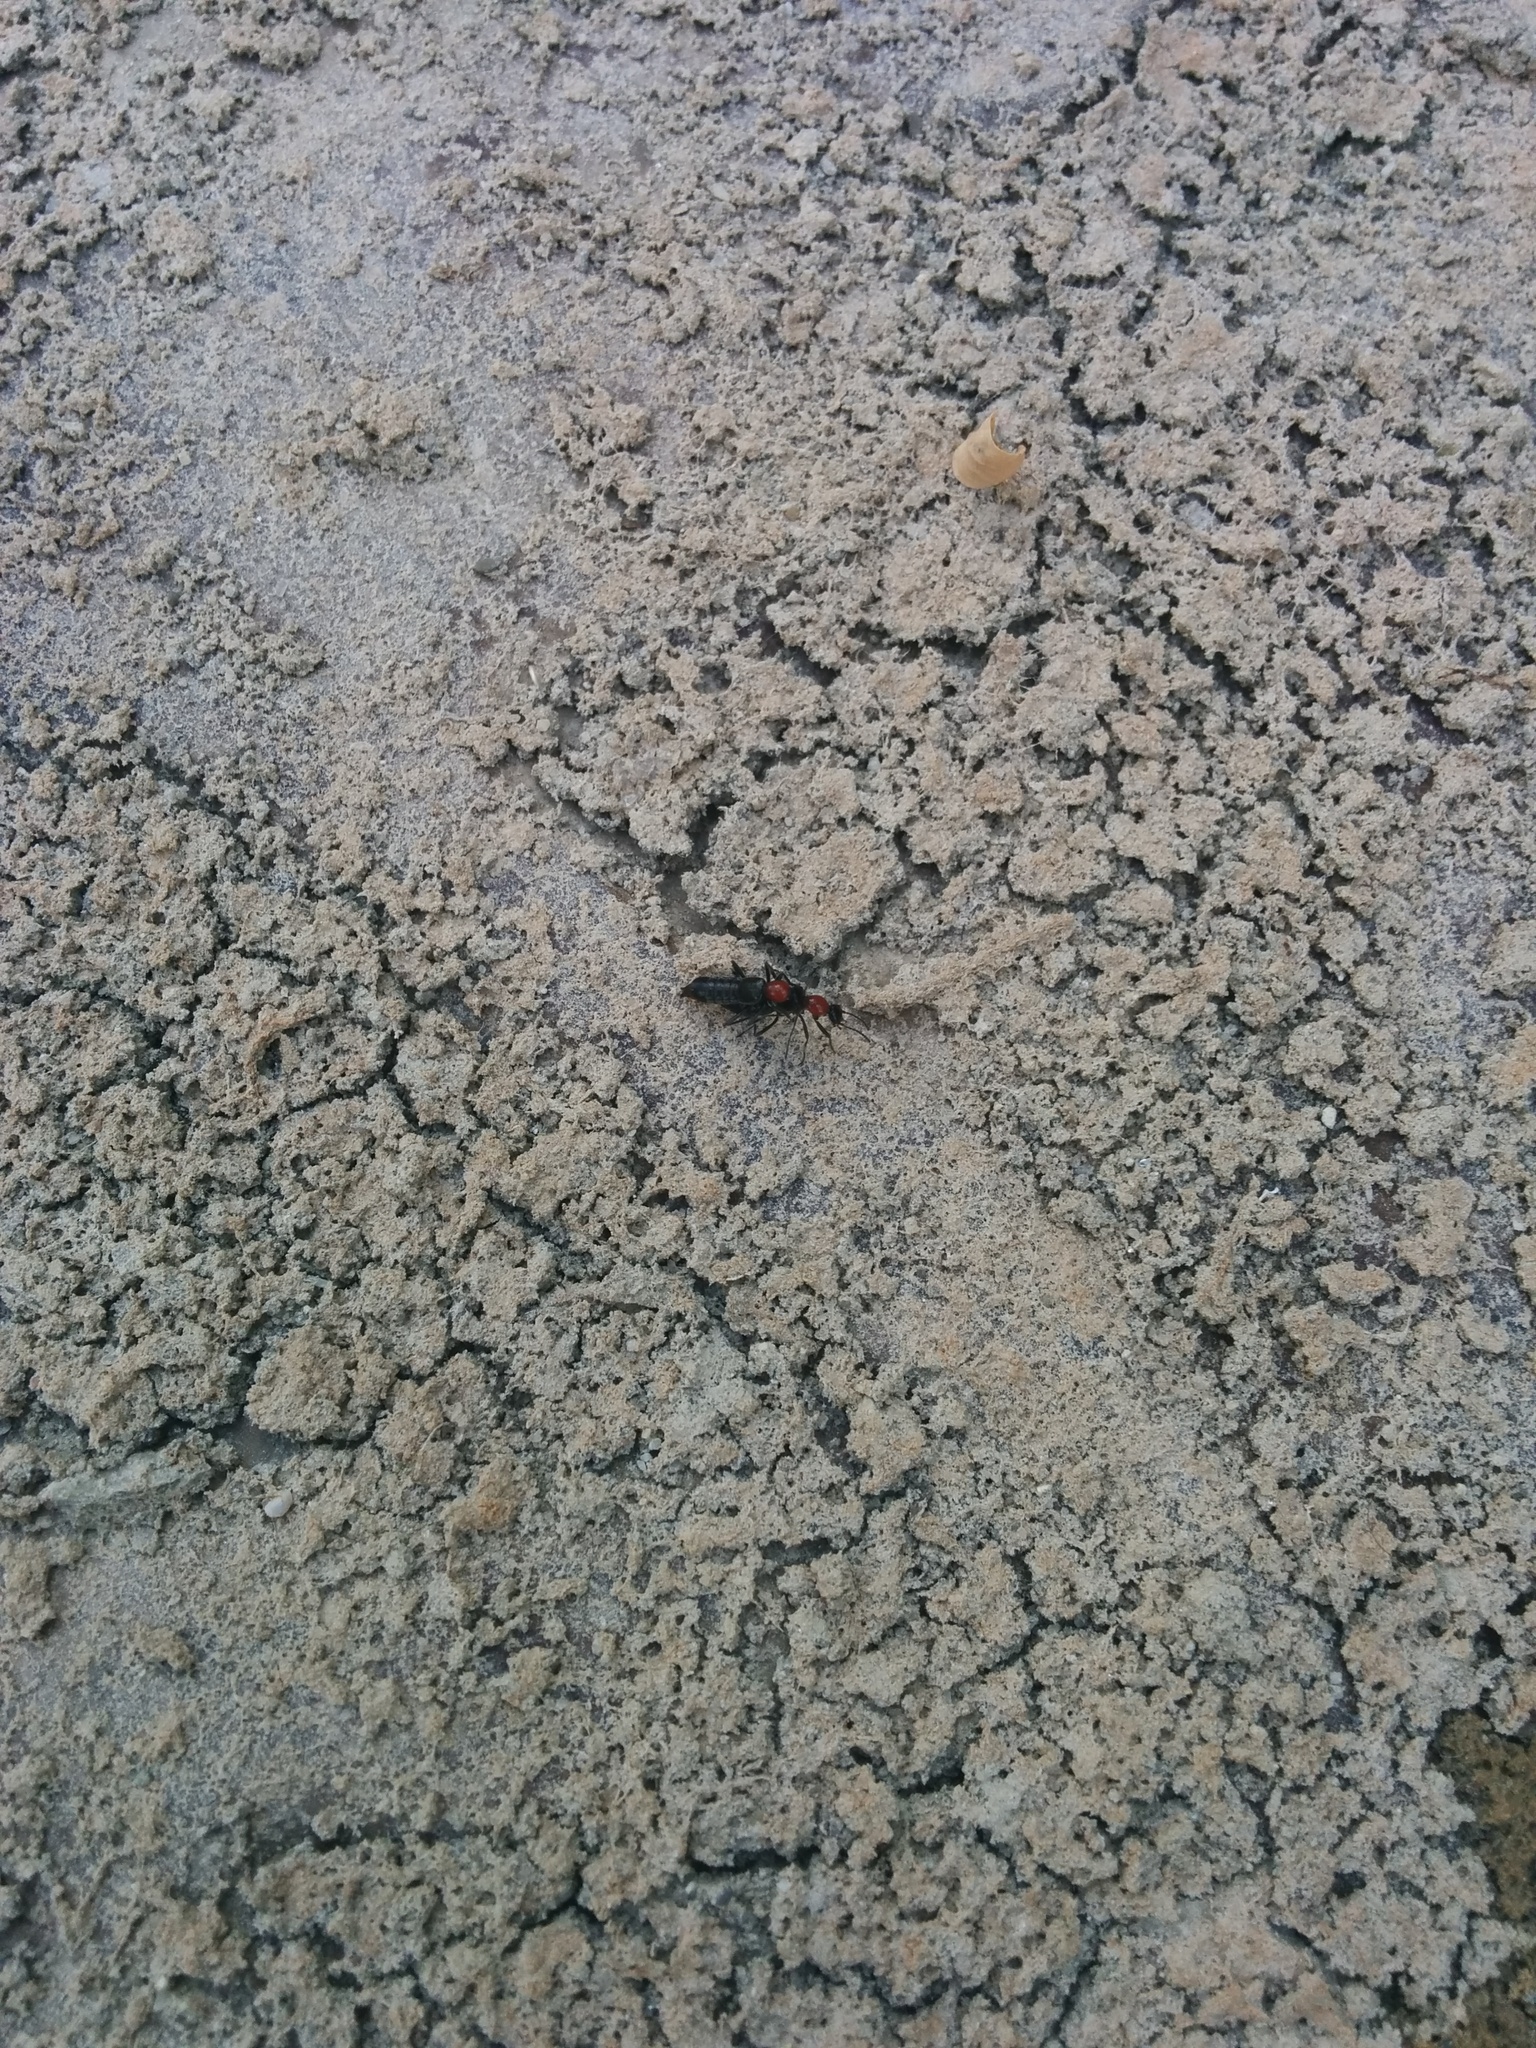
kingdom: Animalia
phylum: Arthropoda
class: Insecta
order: Coleoptera
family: Staphylinidae
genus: Paederidus
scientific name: Paederidus ruficollis
